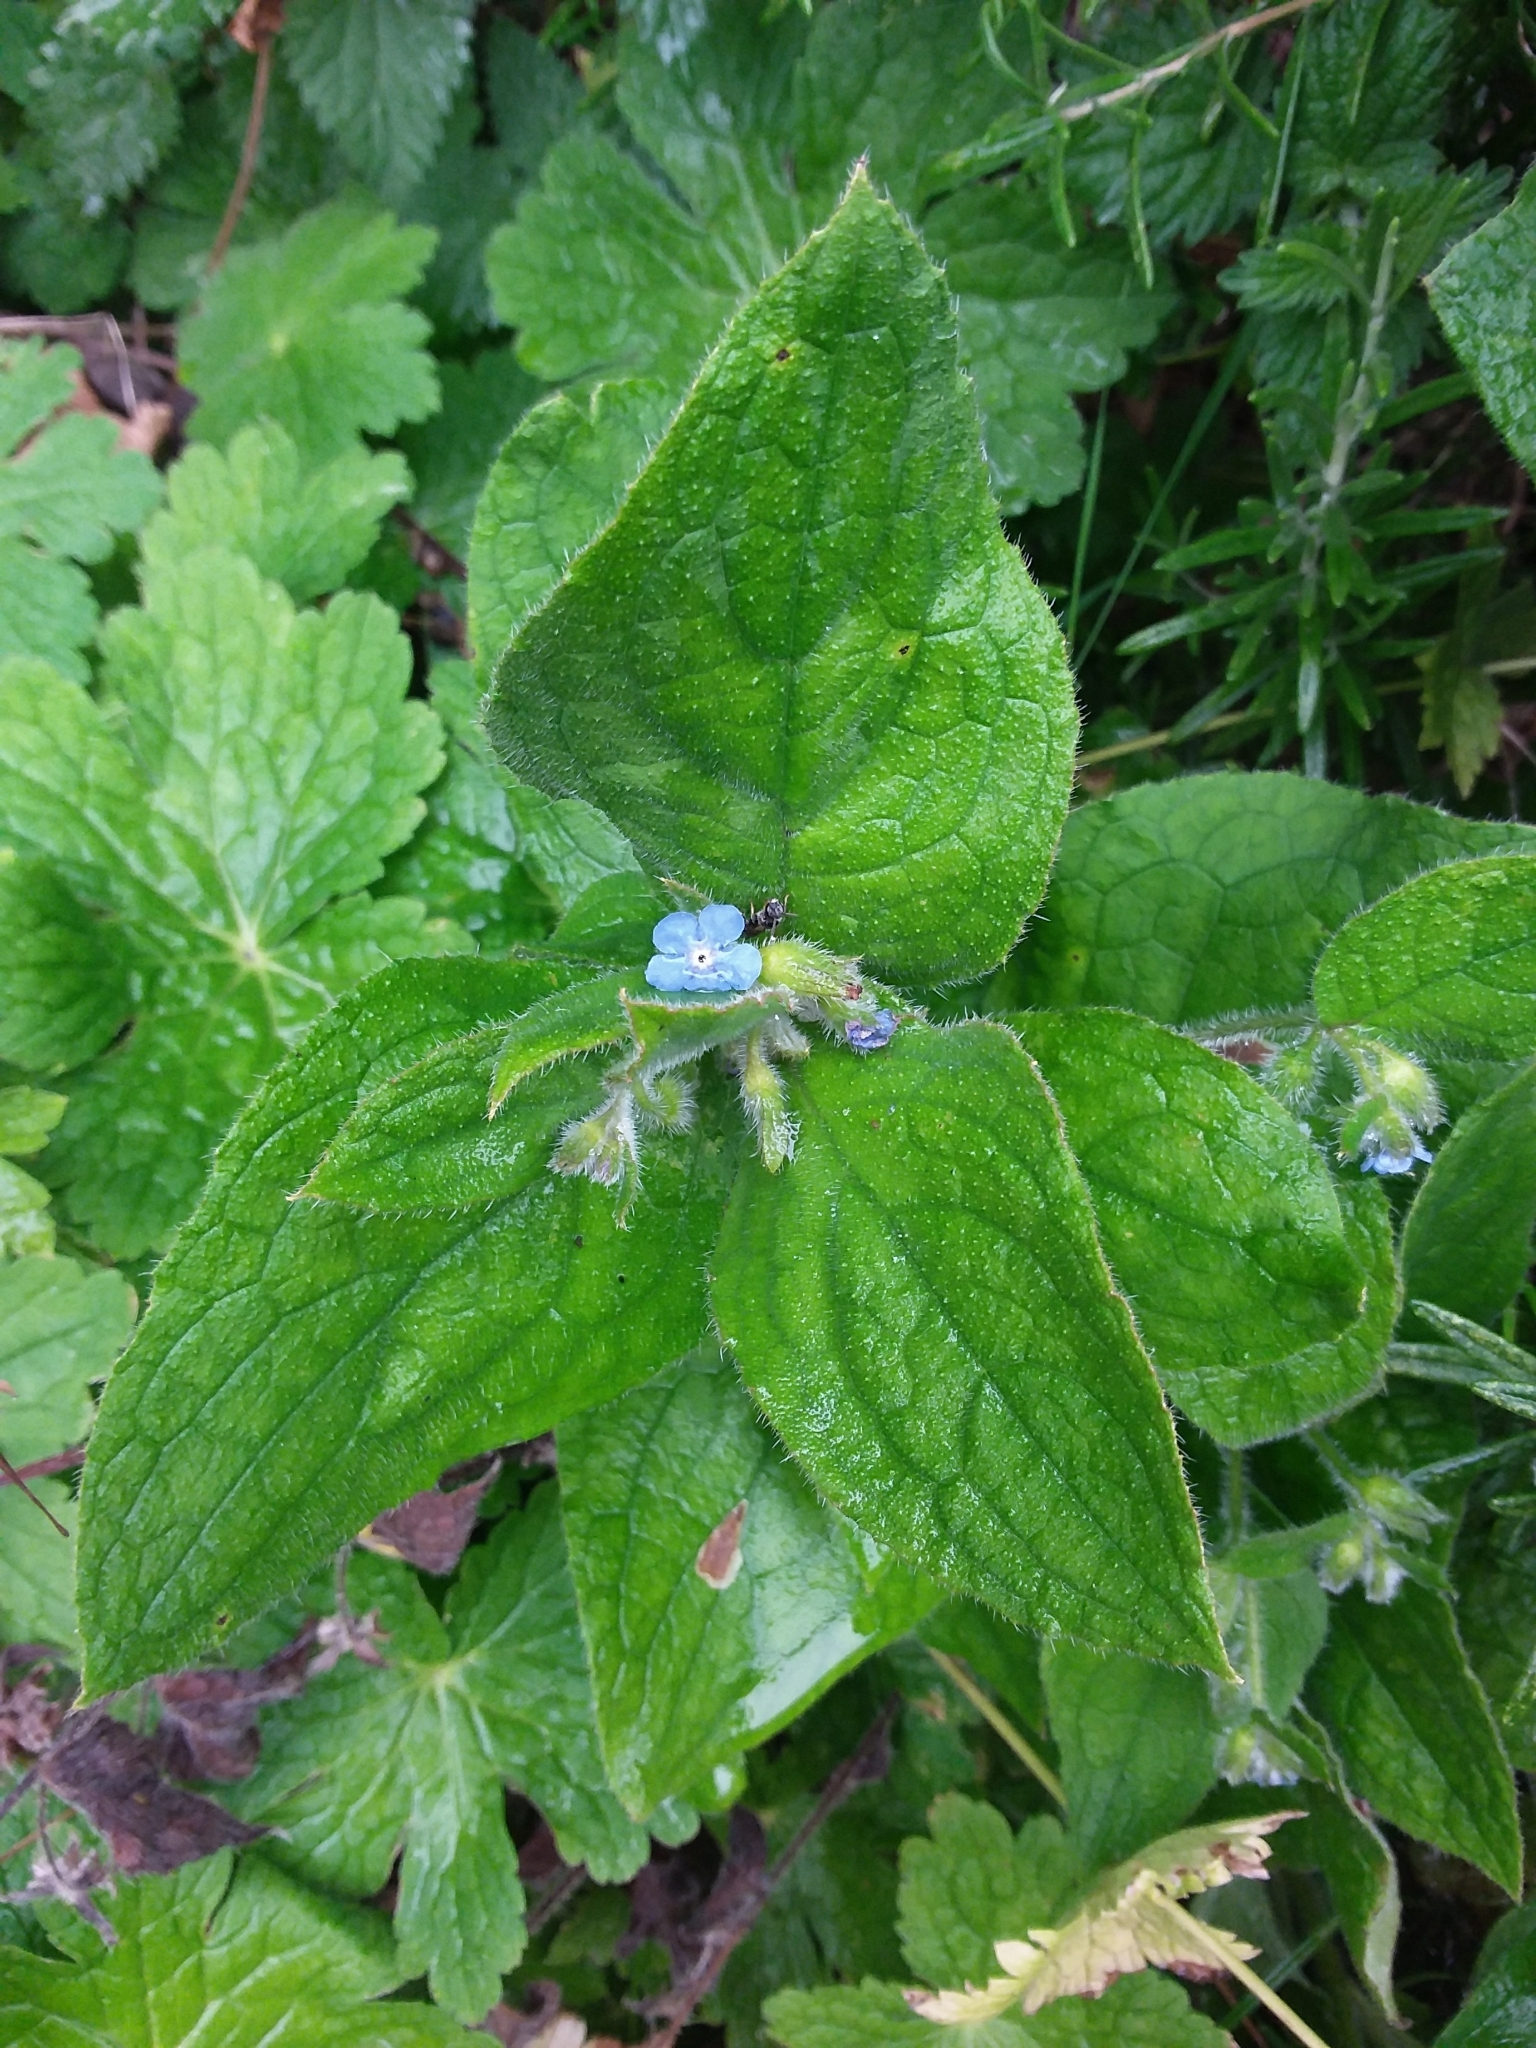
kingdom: Plantae
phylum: Tracheophyta
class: Magnoliopsida
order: Boraginales
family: Boraginaceae
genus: Pentaglottis
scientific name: Pentaglottis sempervirens
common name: Green alkanet
